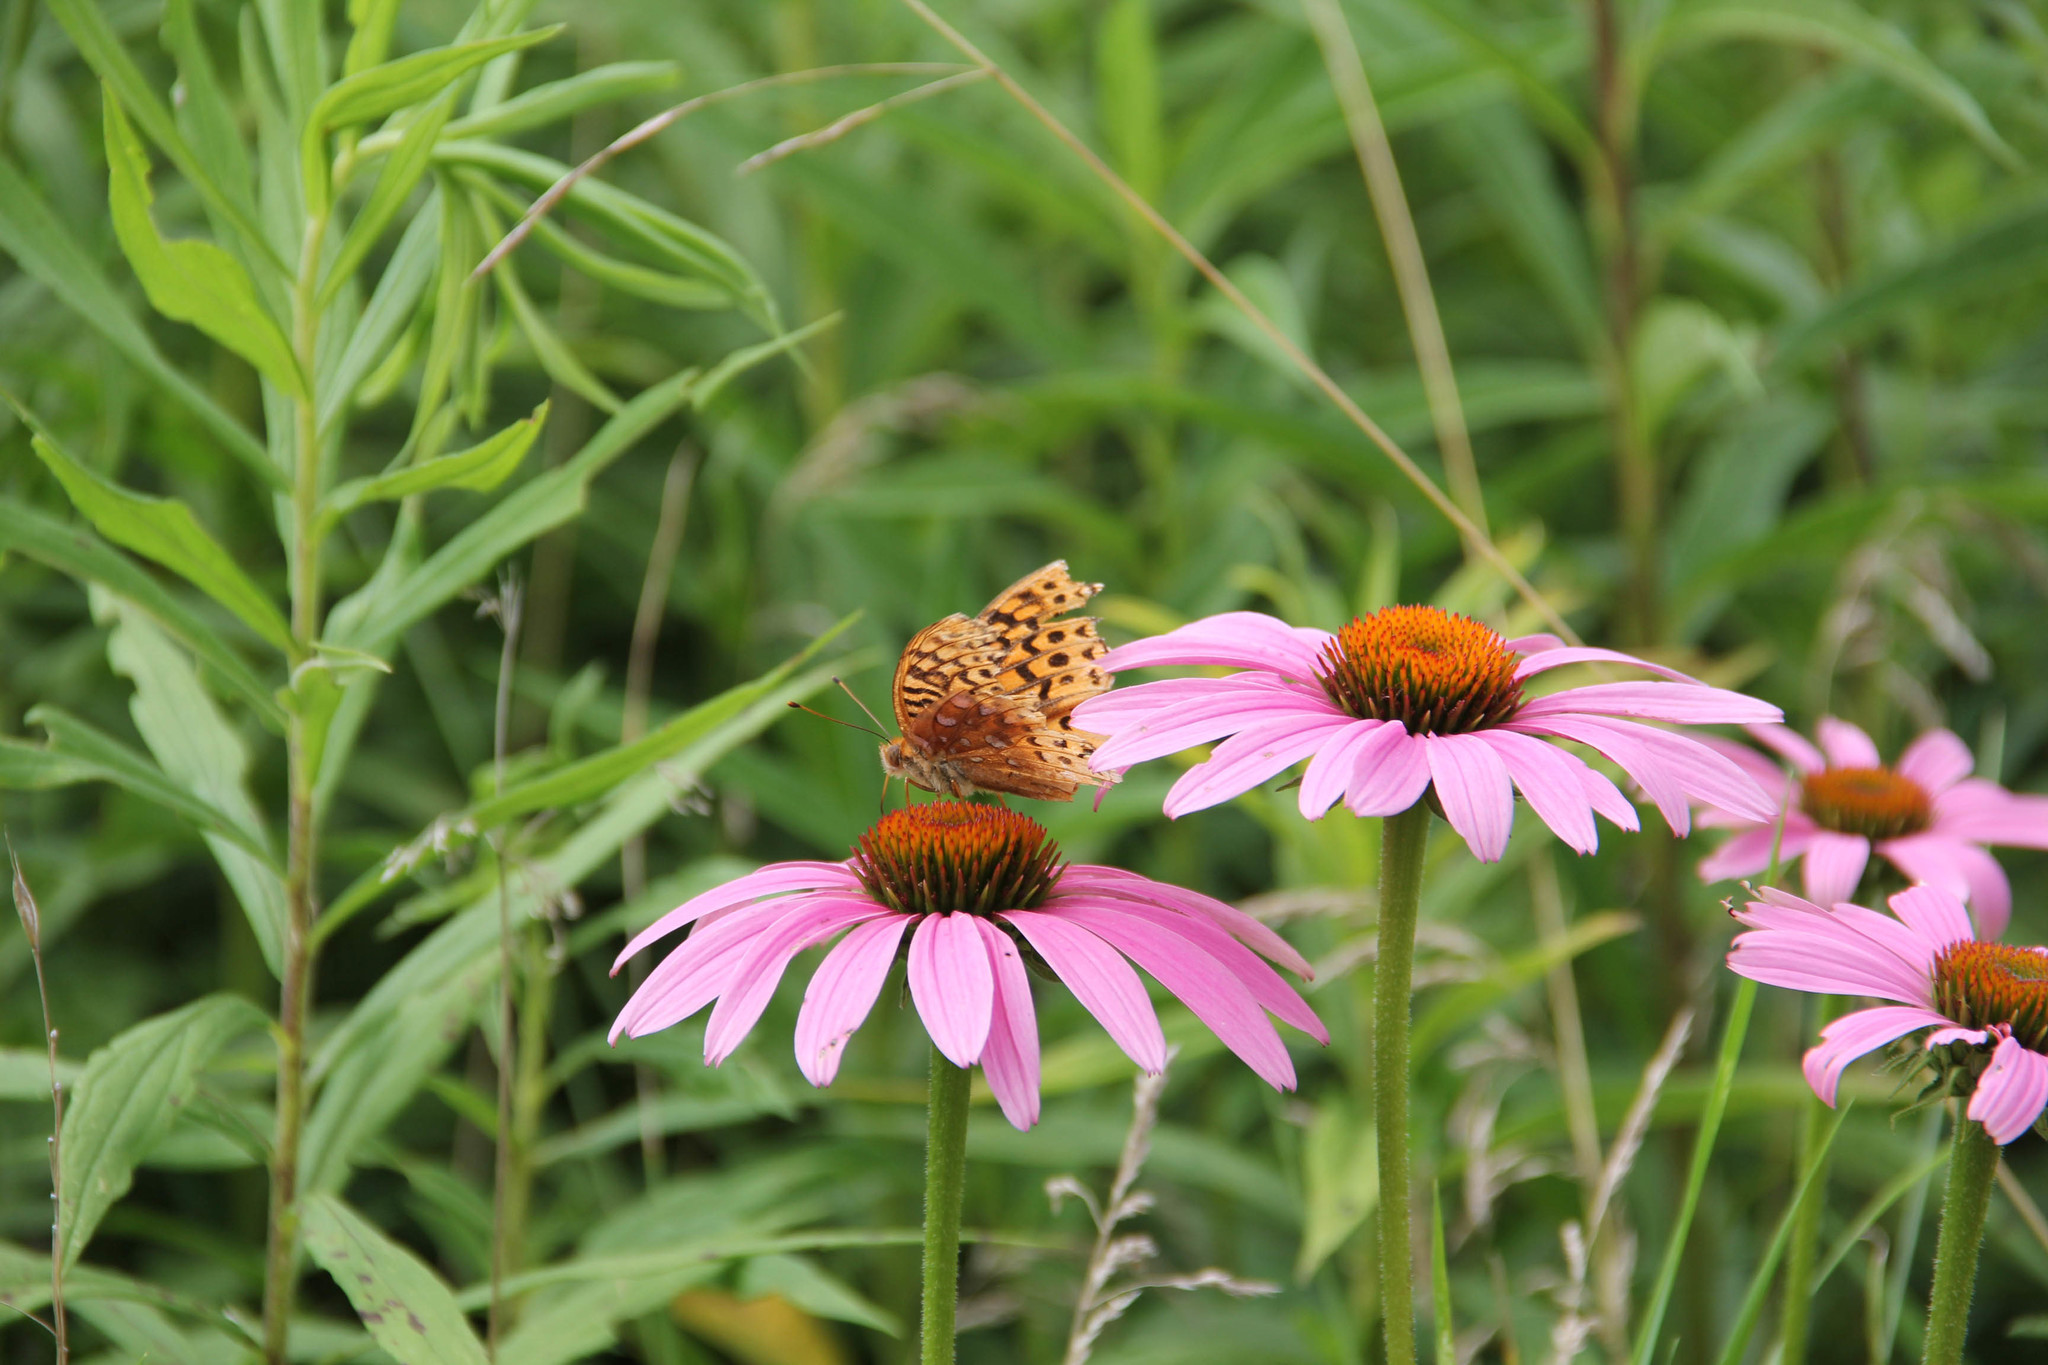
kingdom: Animalia
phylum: Arthropoda
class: Insecta
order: Lepidoptera
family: Nymphalidae
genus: Speyeria
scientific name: Speyeria cybele
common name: Great spangled fritillary
